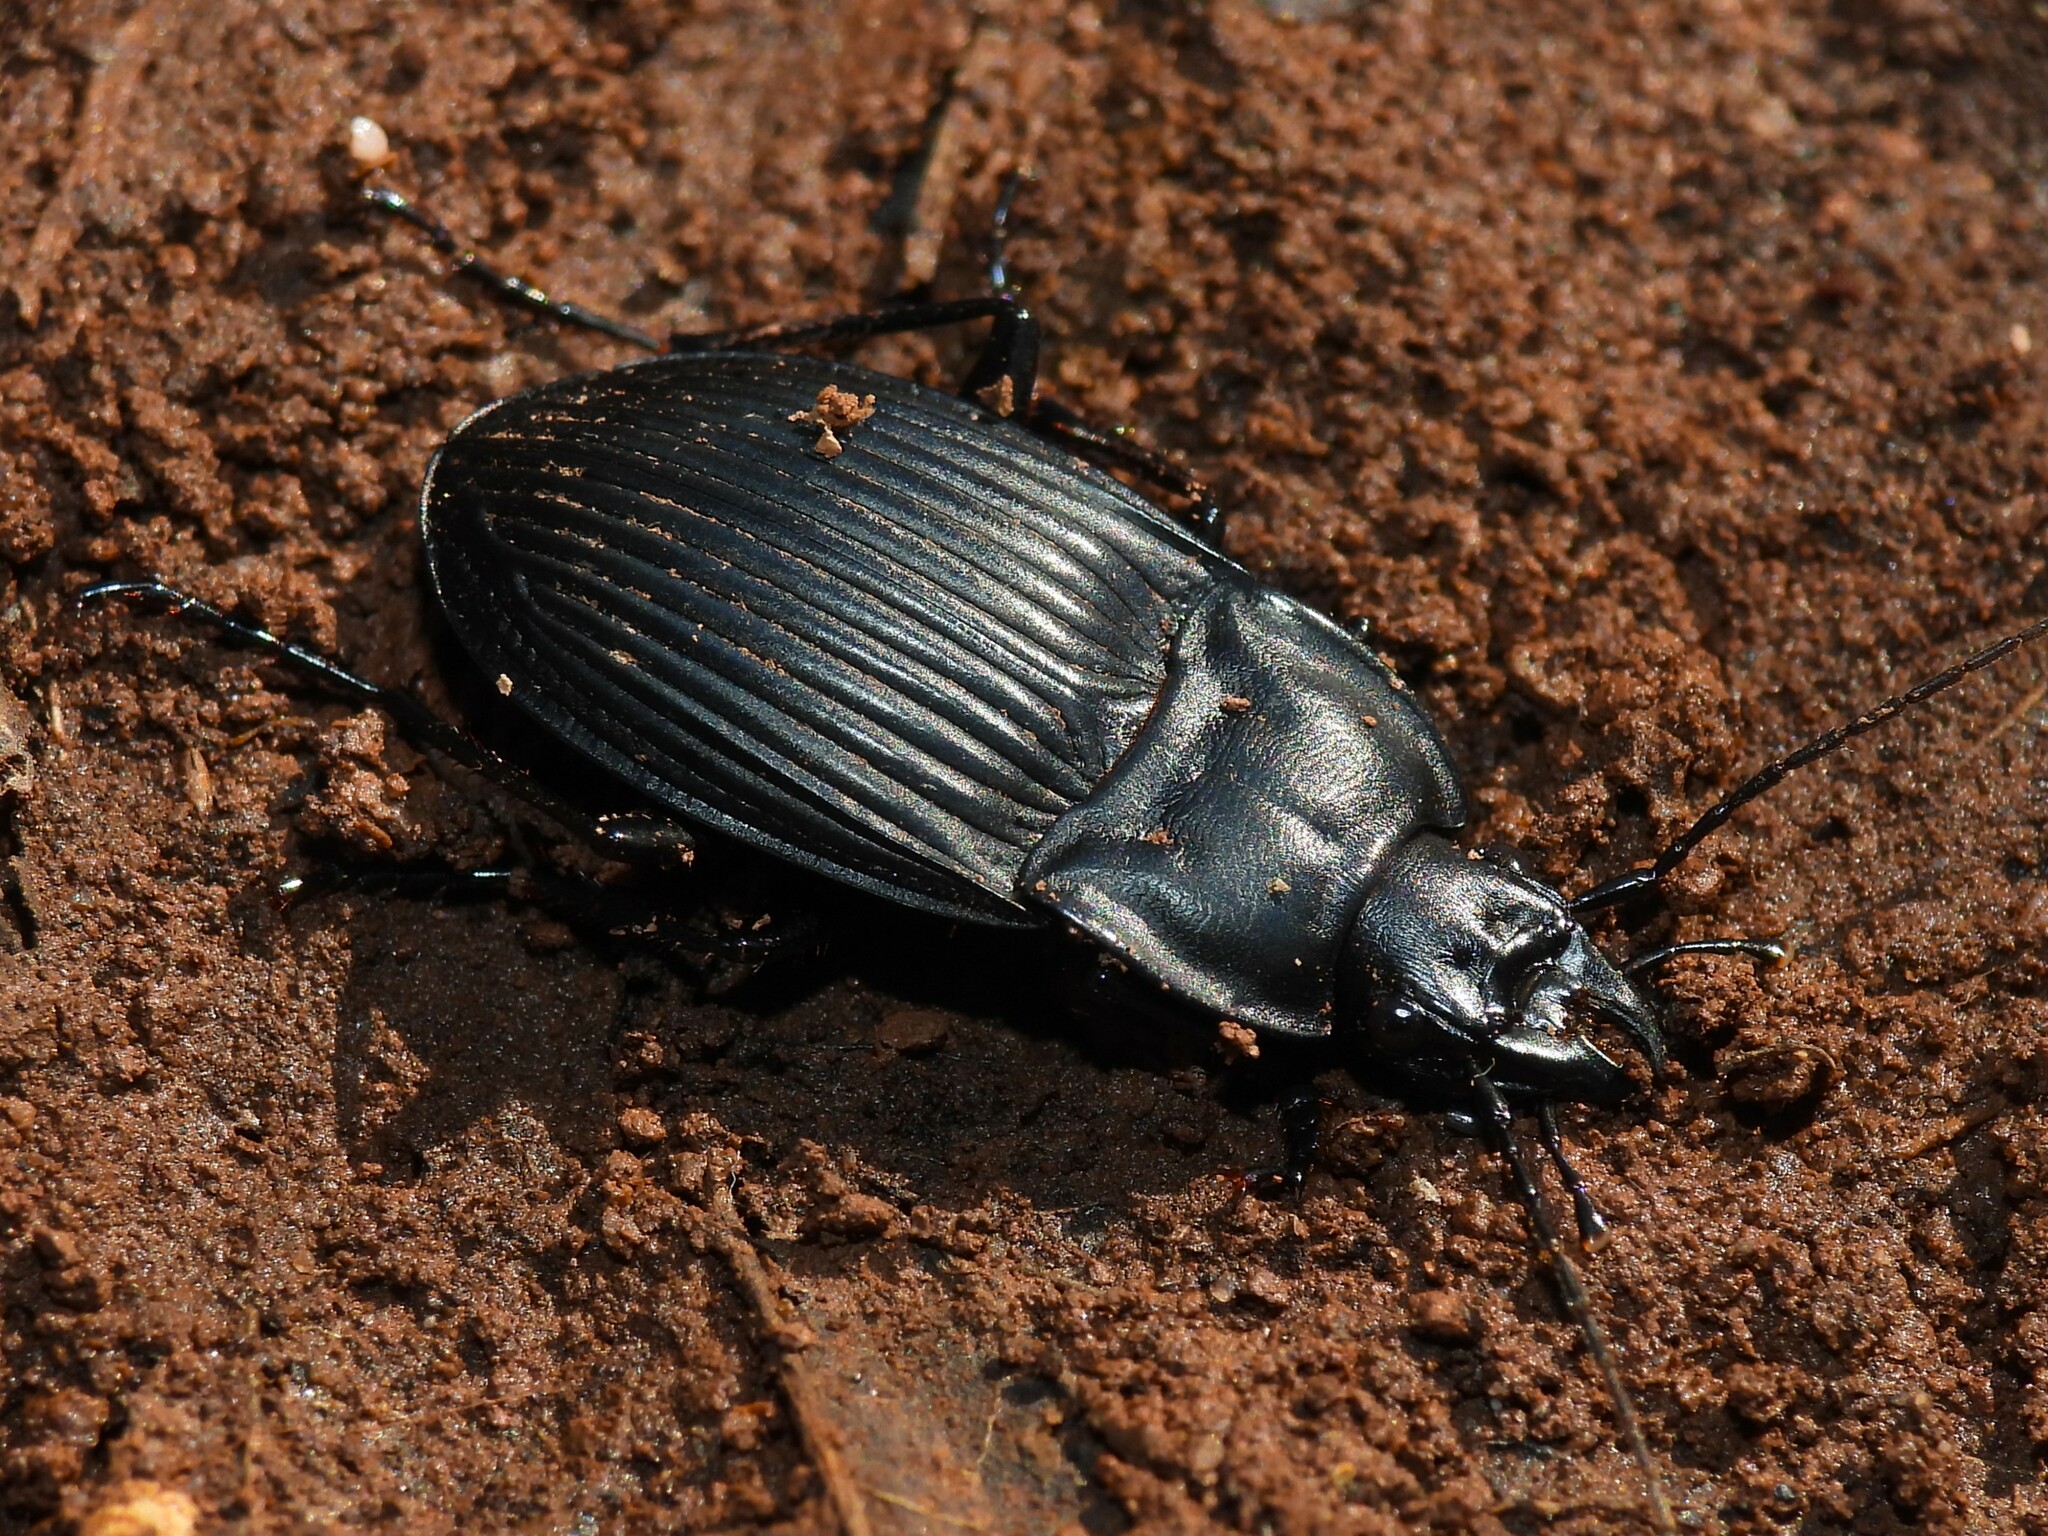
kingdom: Animalia
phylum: Arthropoda
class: Insecta
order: Coleoptera
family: Carabidae
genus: Dicaelus
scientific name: Dicaelus dilatatus
